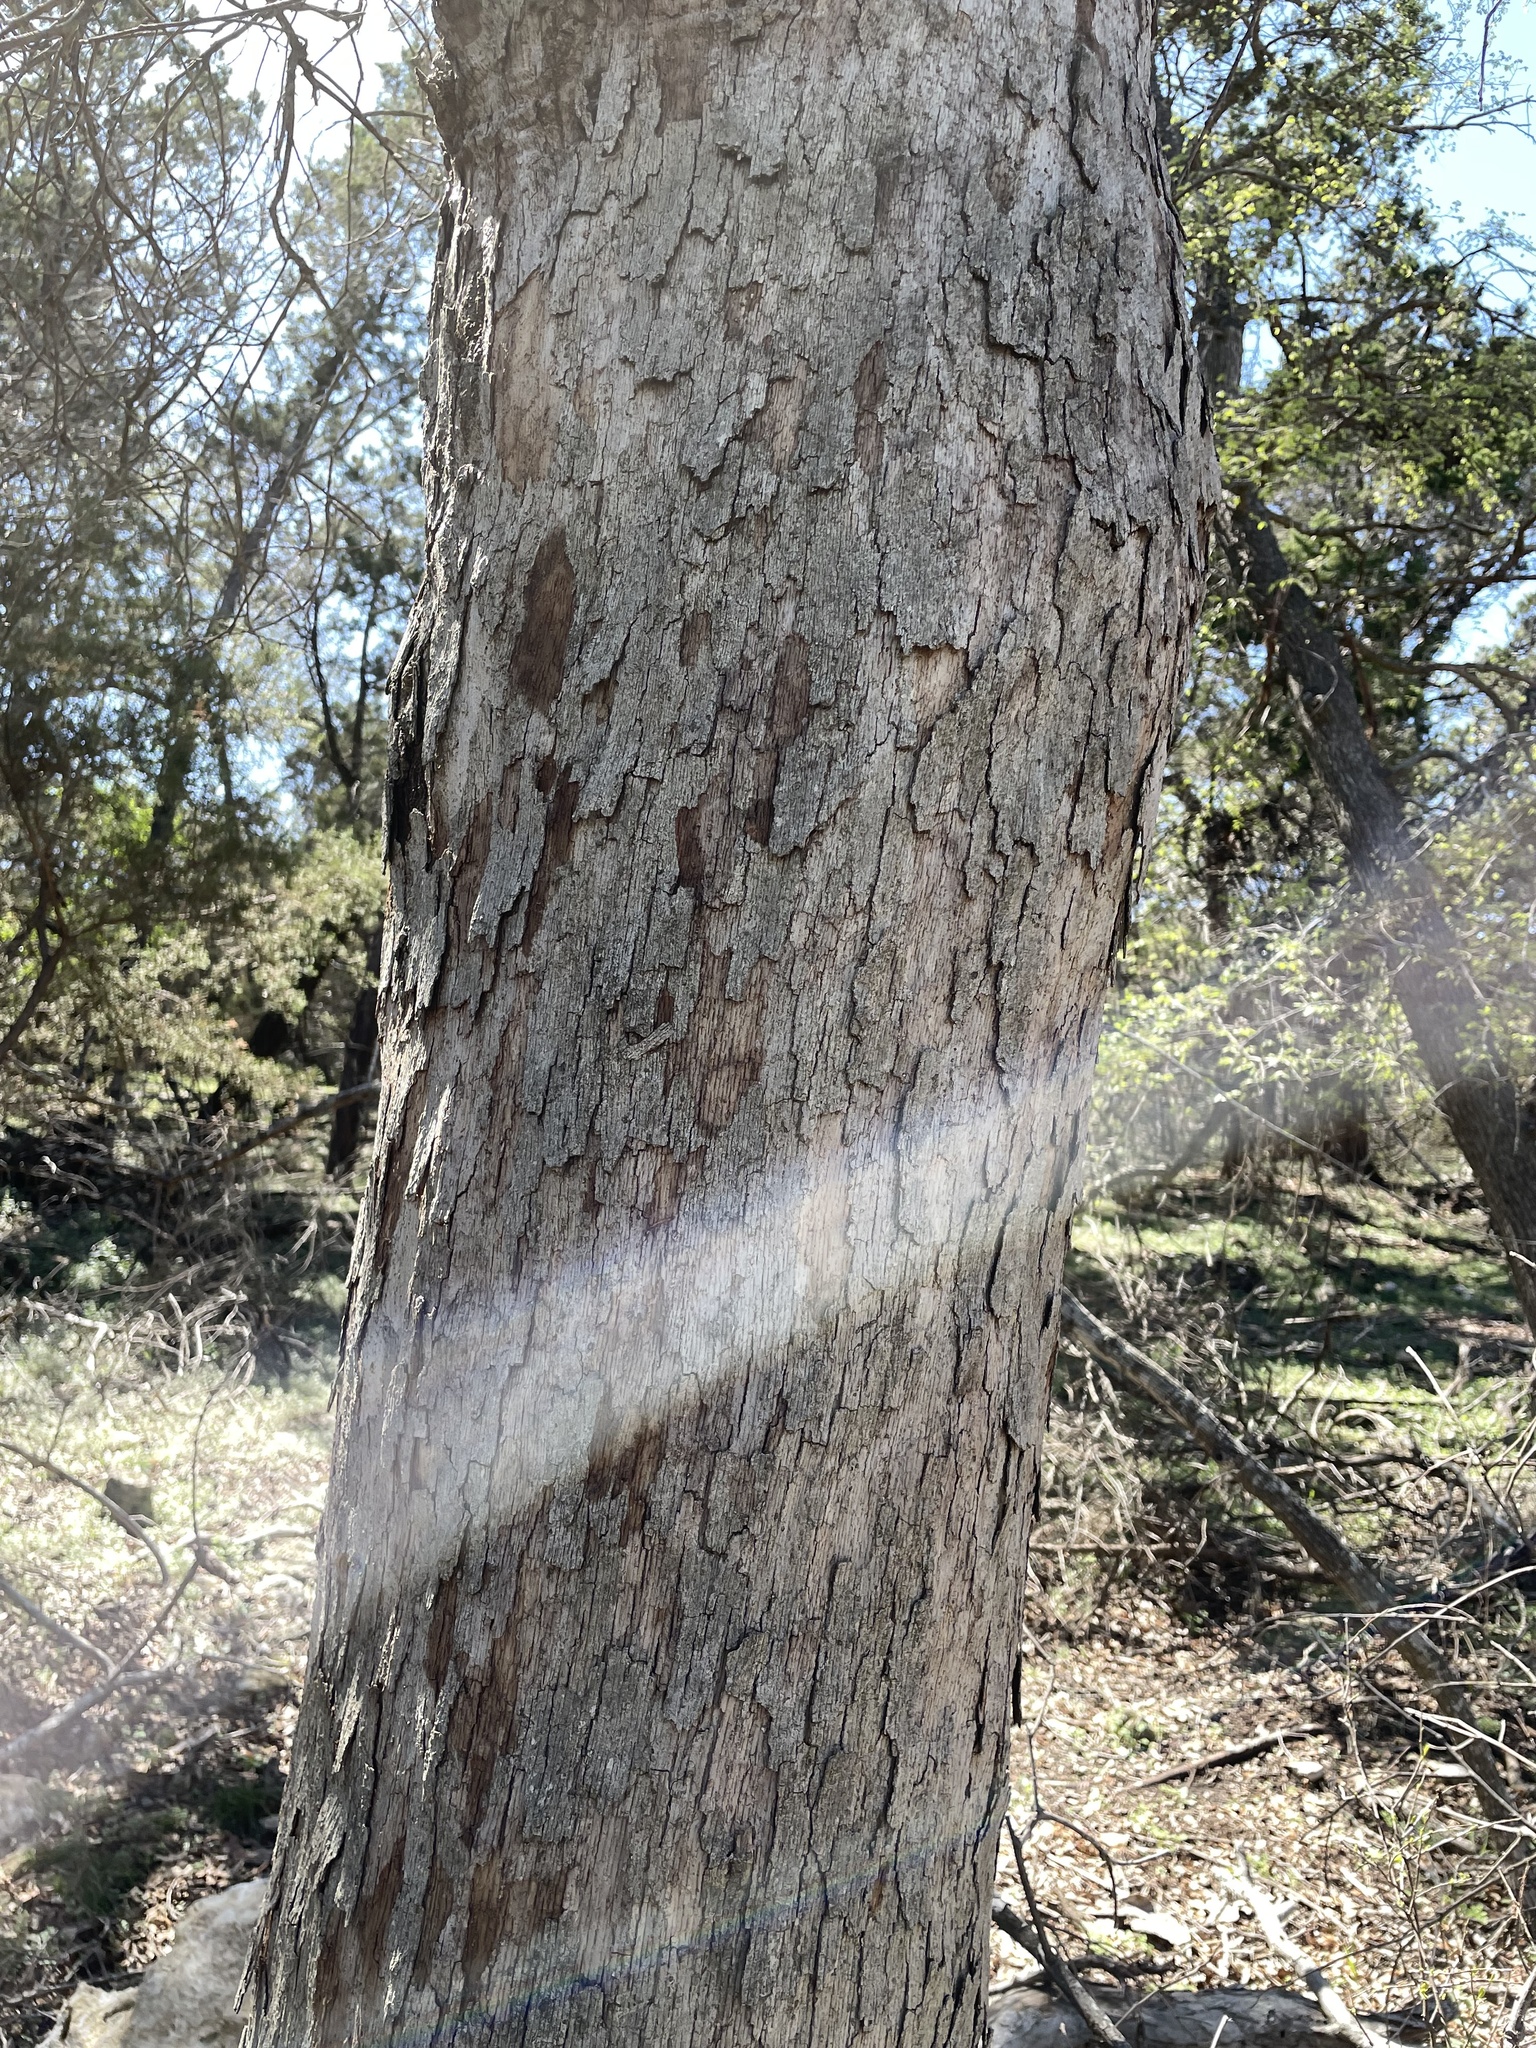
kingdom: Plantae
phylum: Tracheophyta
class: Magnoliopsida
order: Fagales
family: Fagaceae
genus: Quercus
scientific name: Quercus sinuata
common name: Durand oak
